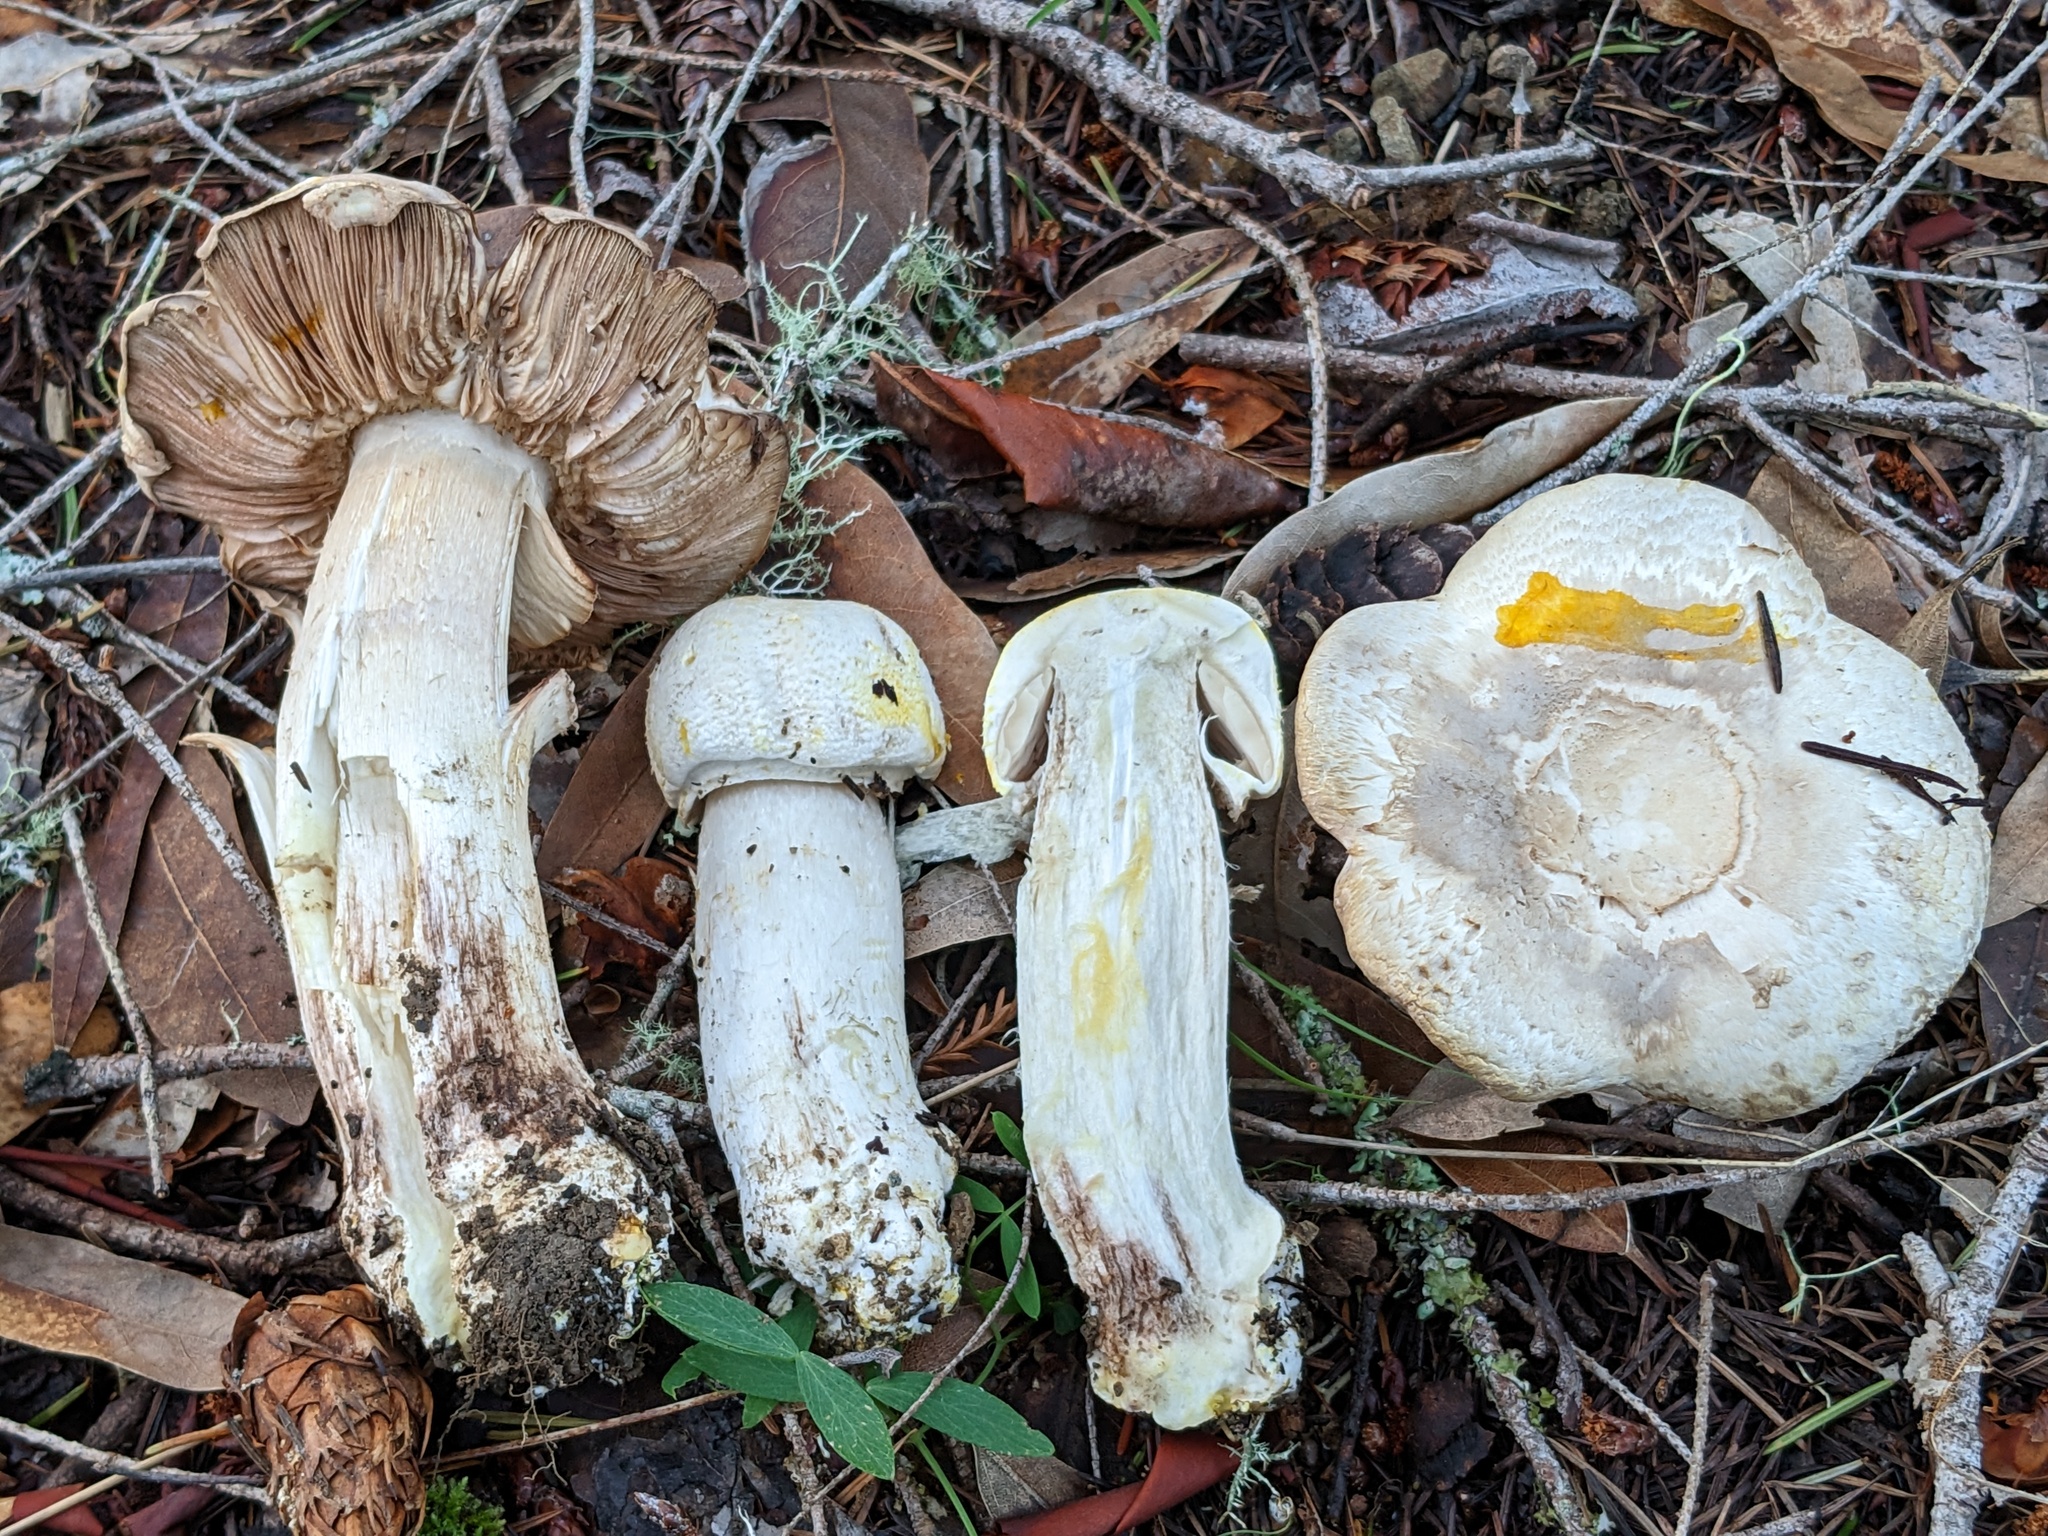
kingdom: Fungi
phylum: Basidiomycota
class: Agaricomycetes
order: Agaricales
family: Agaricaceae
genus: Agaricus
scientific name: Agaricus xanthodermus
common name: Yellow stainer
